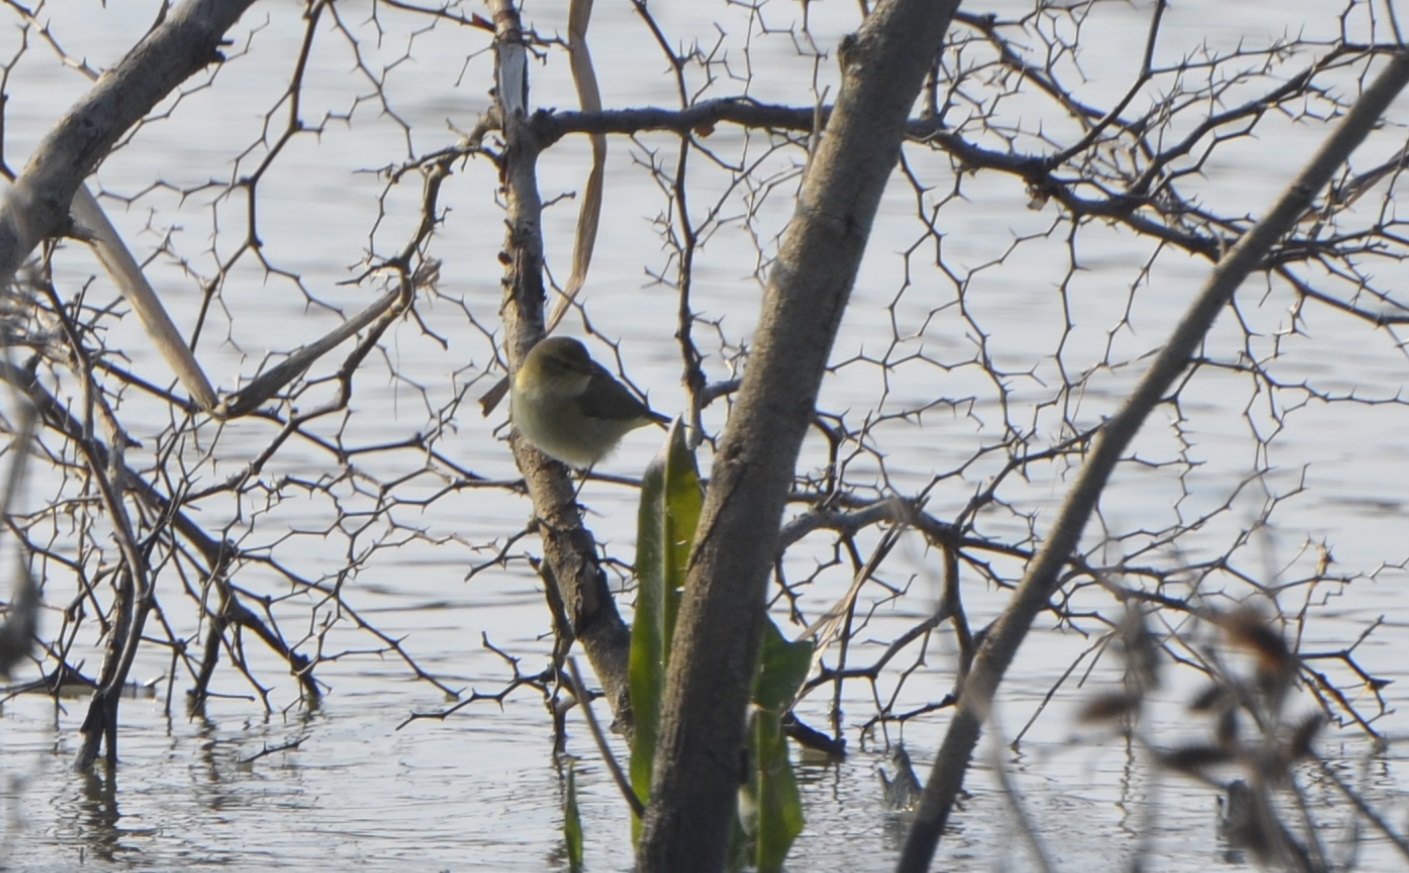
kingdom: Animalia
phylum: Chordata
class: Aves
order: Passeriformes
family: Phylloscopidae
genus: Phylloscopus
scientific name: Phylloscopus collybita
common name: Common chiffchaff
